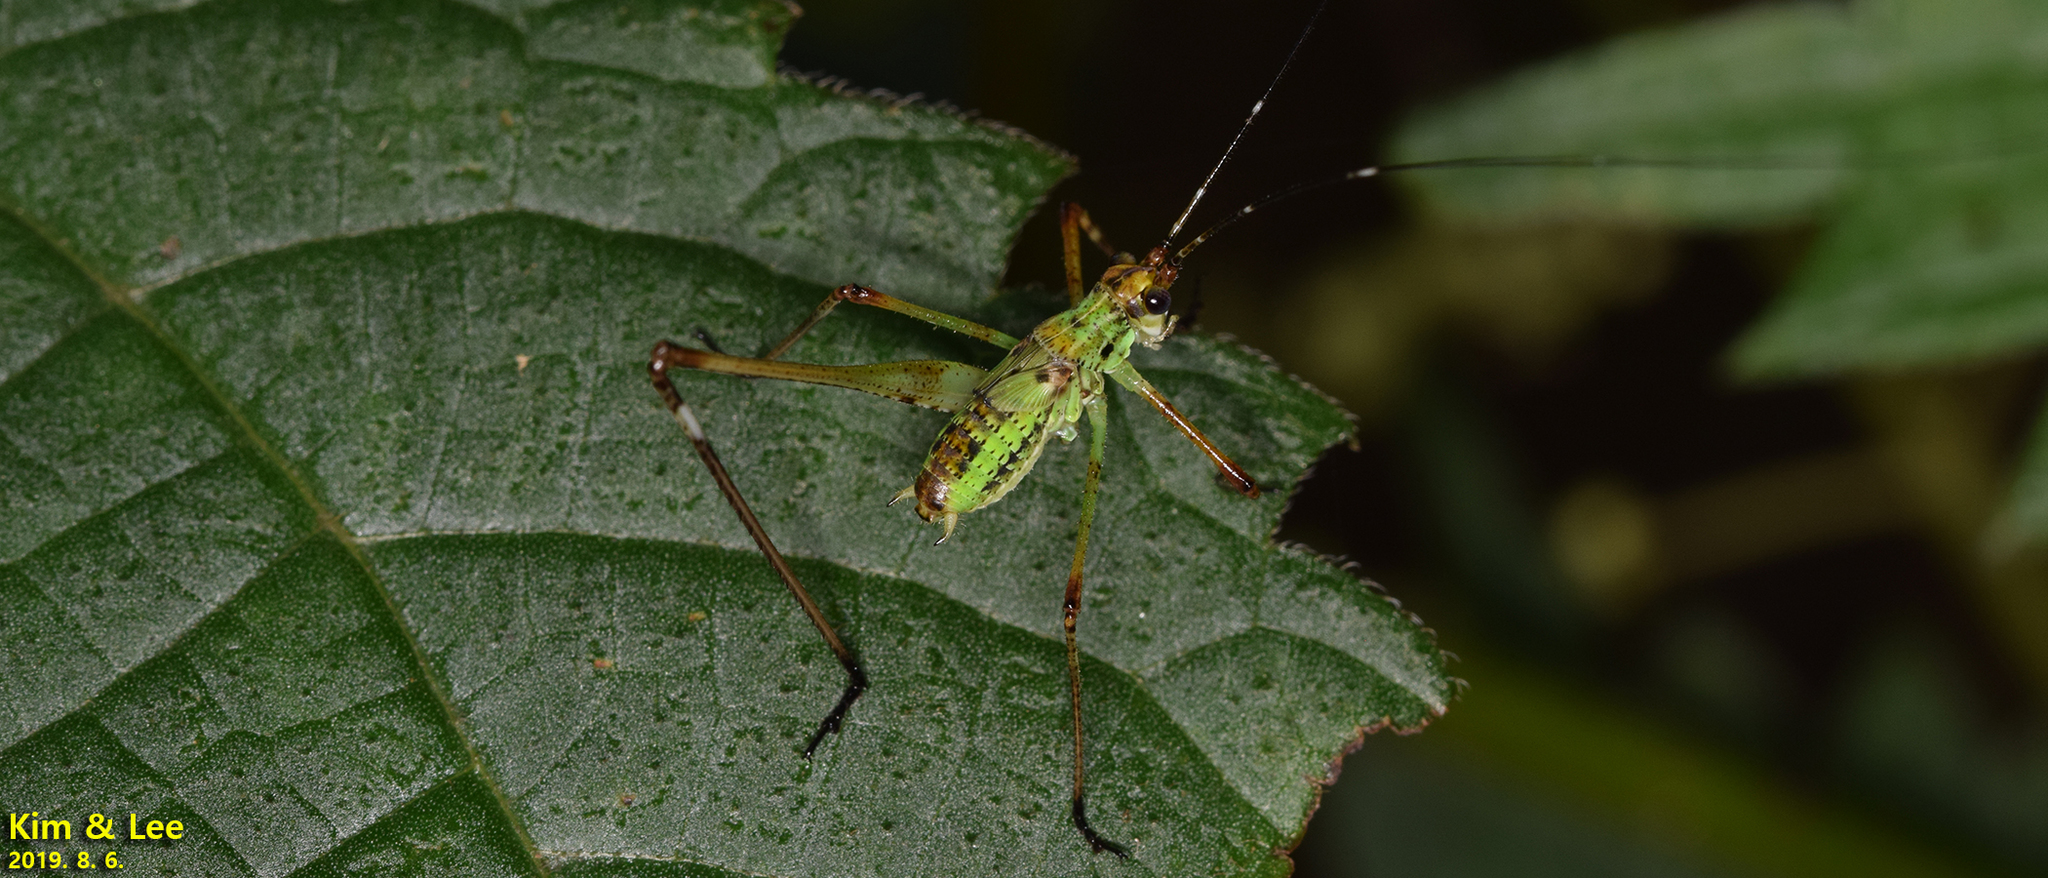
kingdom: Animalia
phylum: Arthropoda
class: Insecta
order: Orthoptera
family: Tettigoniidae
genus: Phaneroptera
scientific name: Phaneroptera nigroantennata
